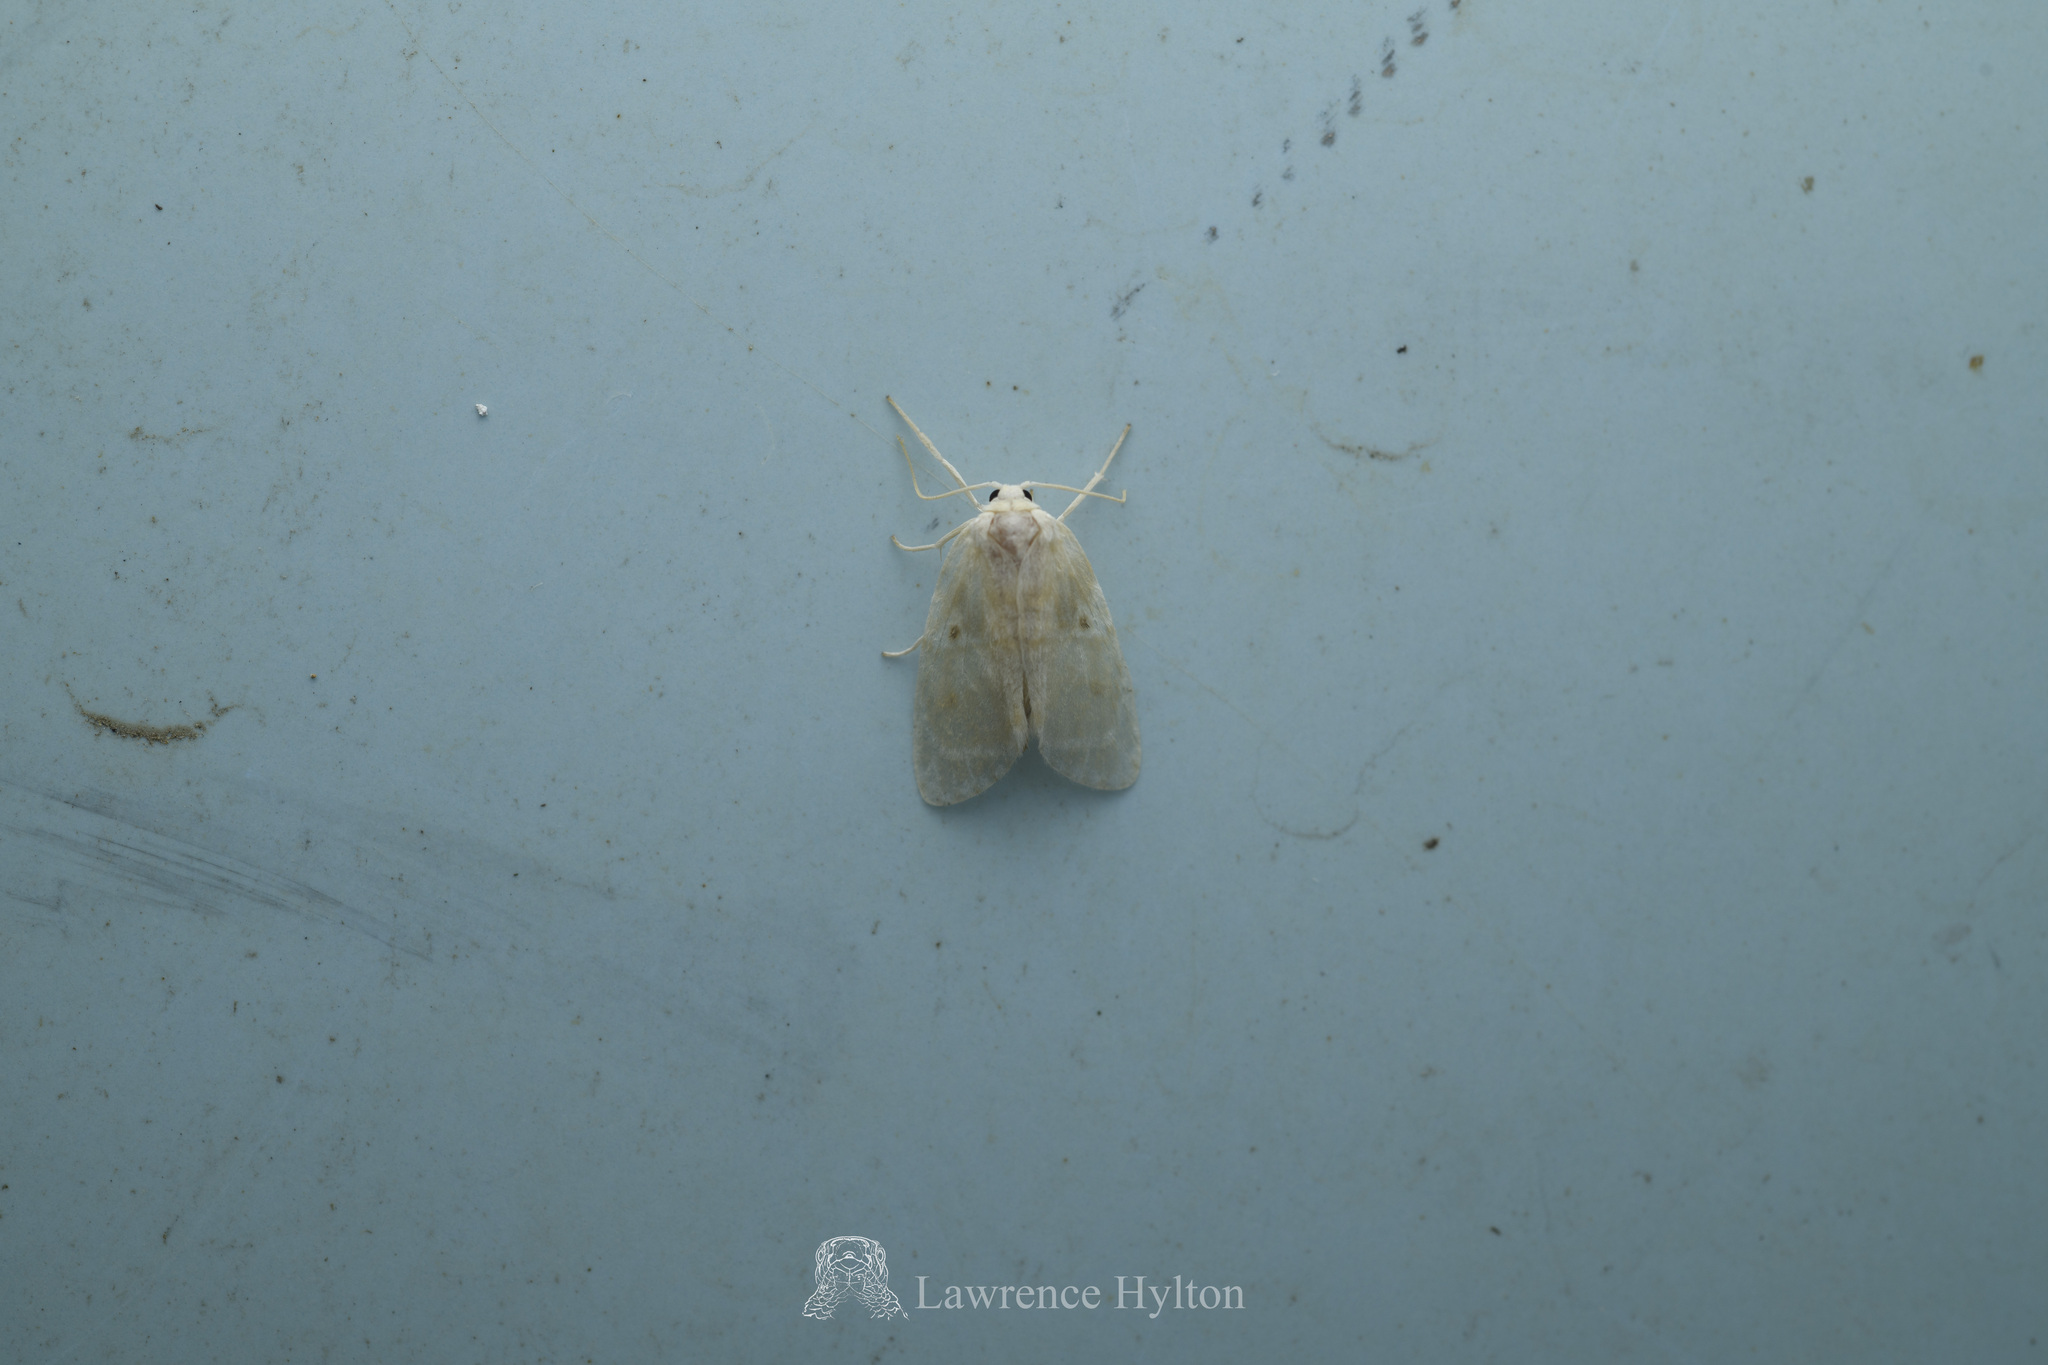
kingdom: Animalia
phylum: Arthropoda
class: Insecta
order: Lepidoptera
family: Erebidae
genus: Schistophleps
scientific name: Schistophleps bipuncta
